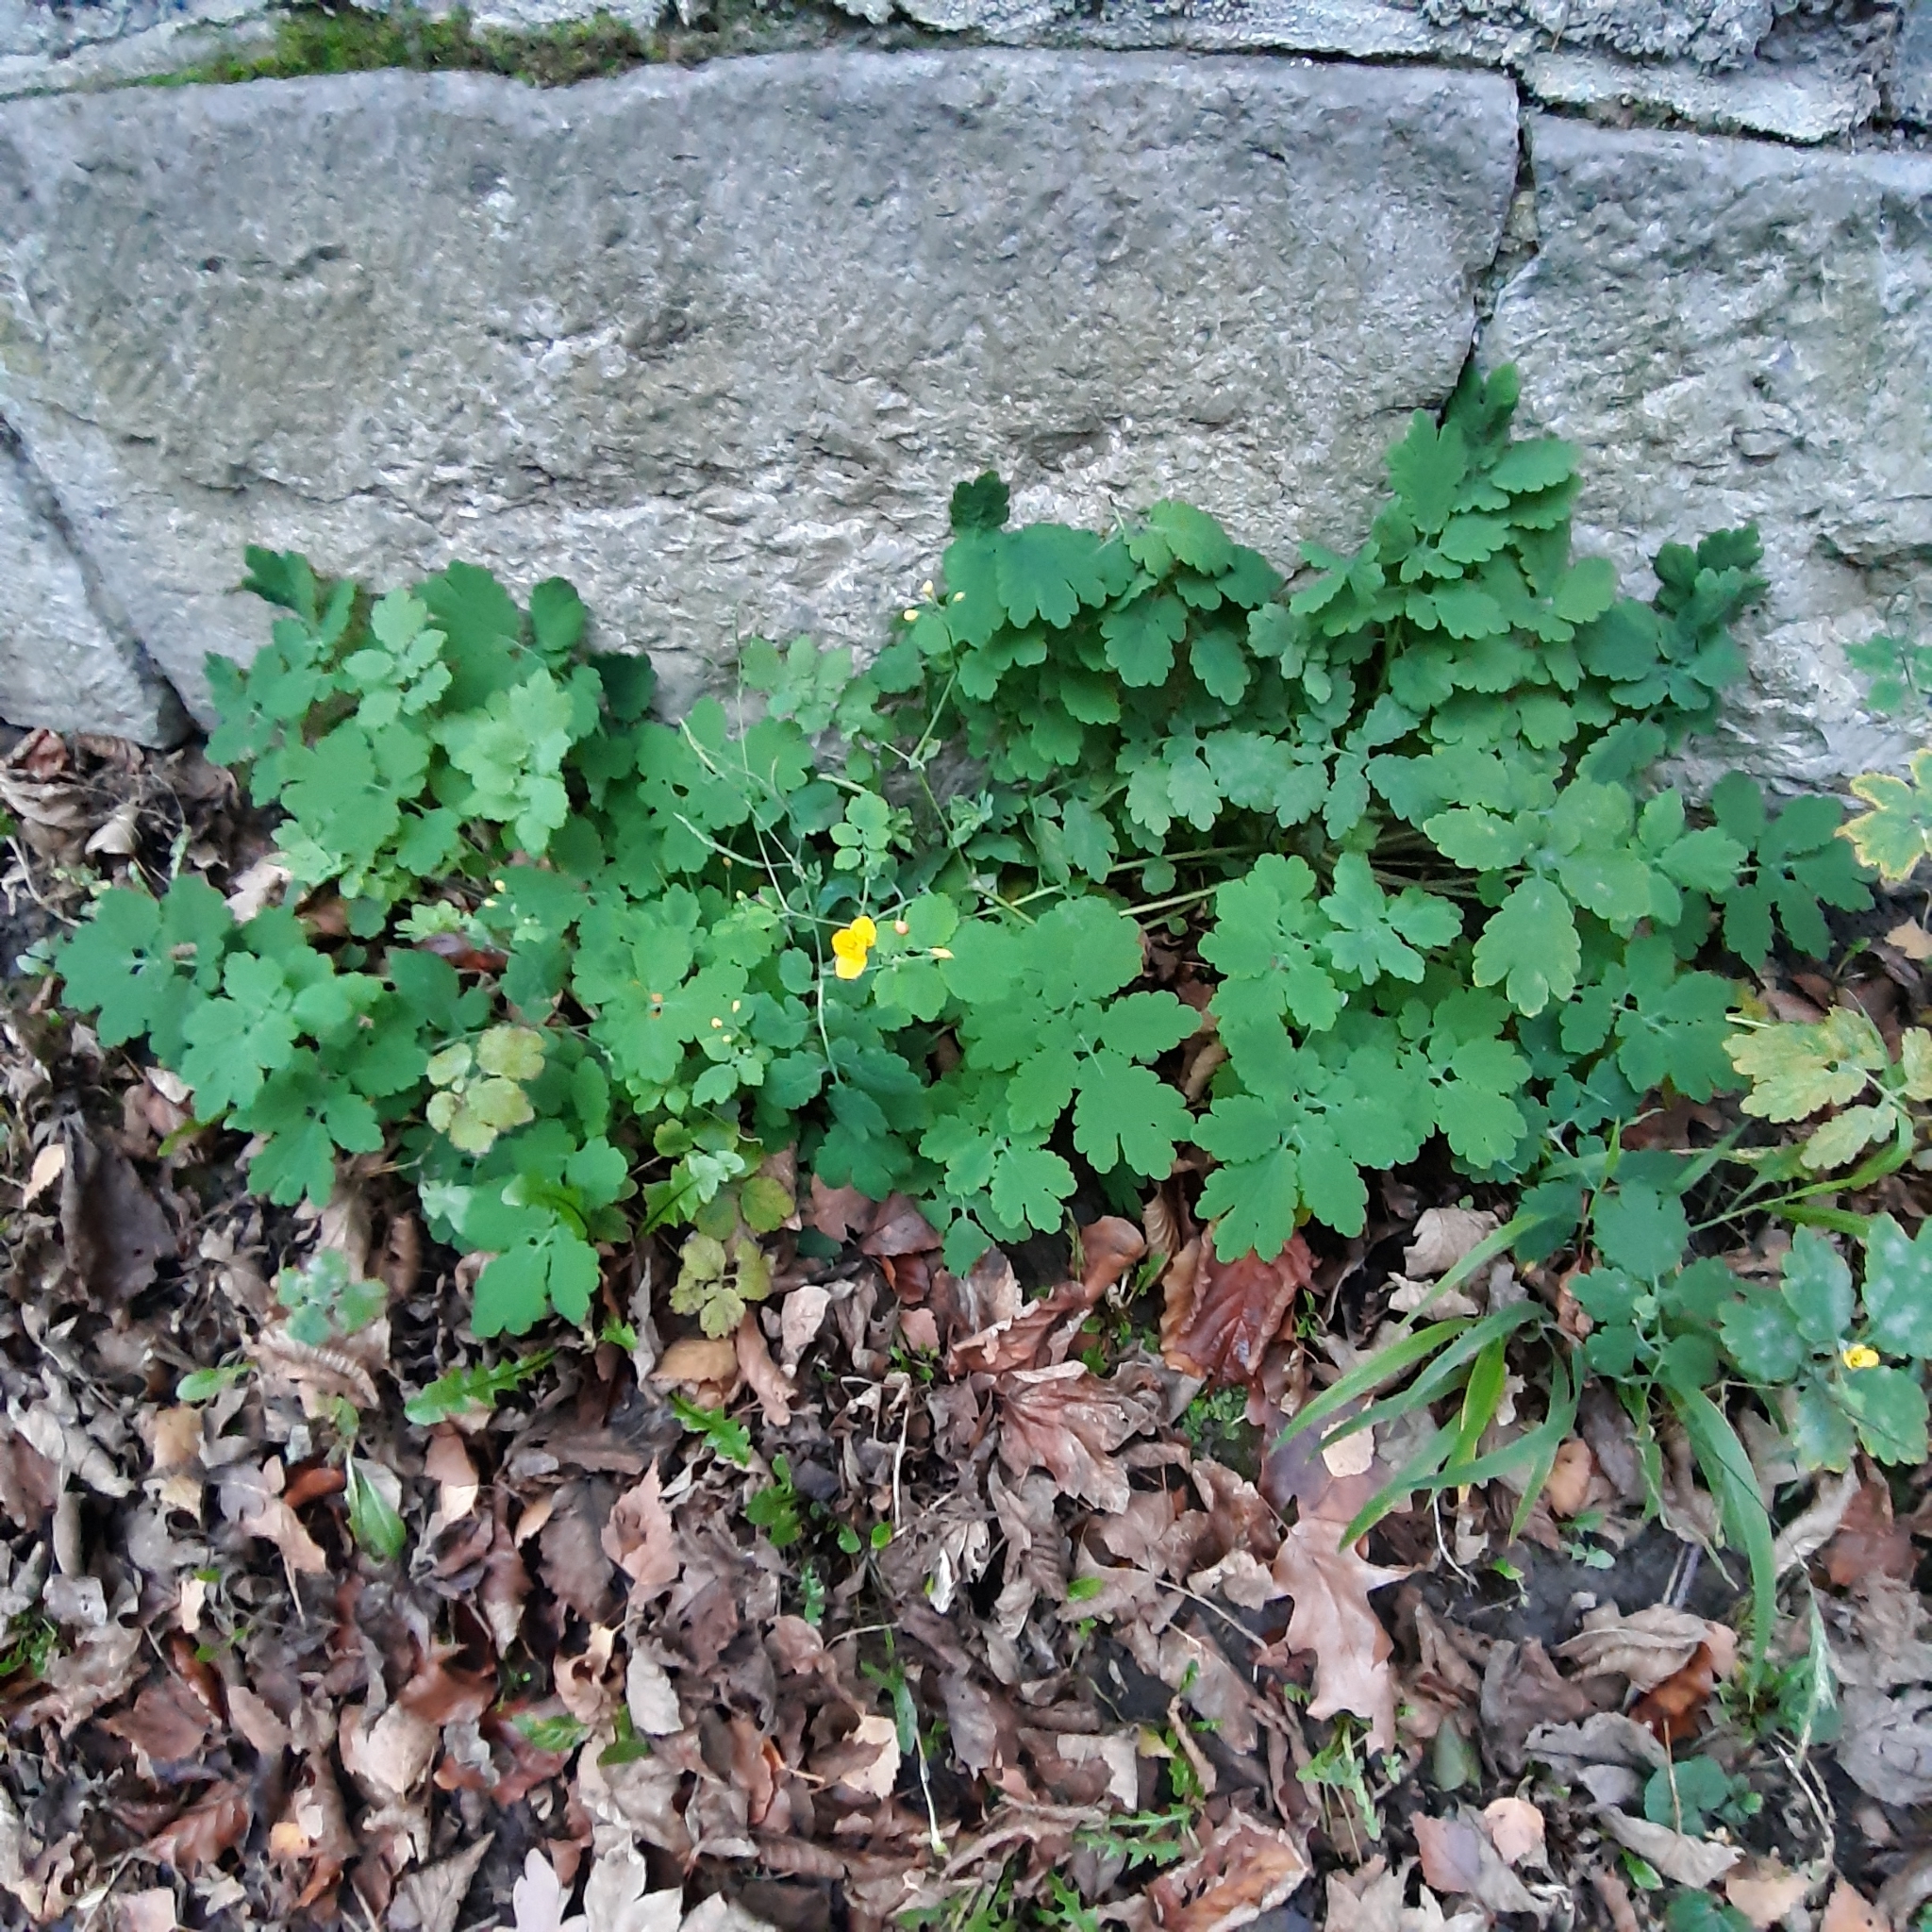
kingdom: Plantae
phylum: Tracheophyta
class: Magnoliopsida
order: Ranunculales
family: Papaveraceae
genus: Chelidonium
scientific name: Chelidonium majus
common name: Greater celandine
